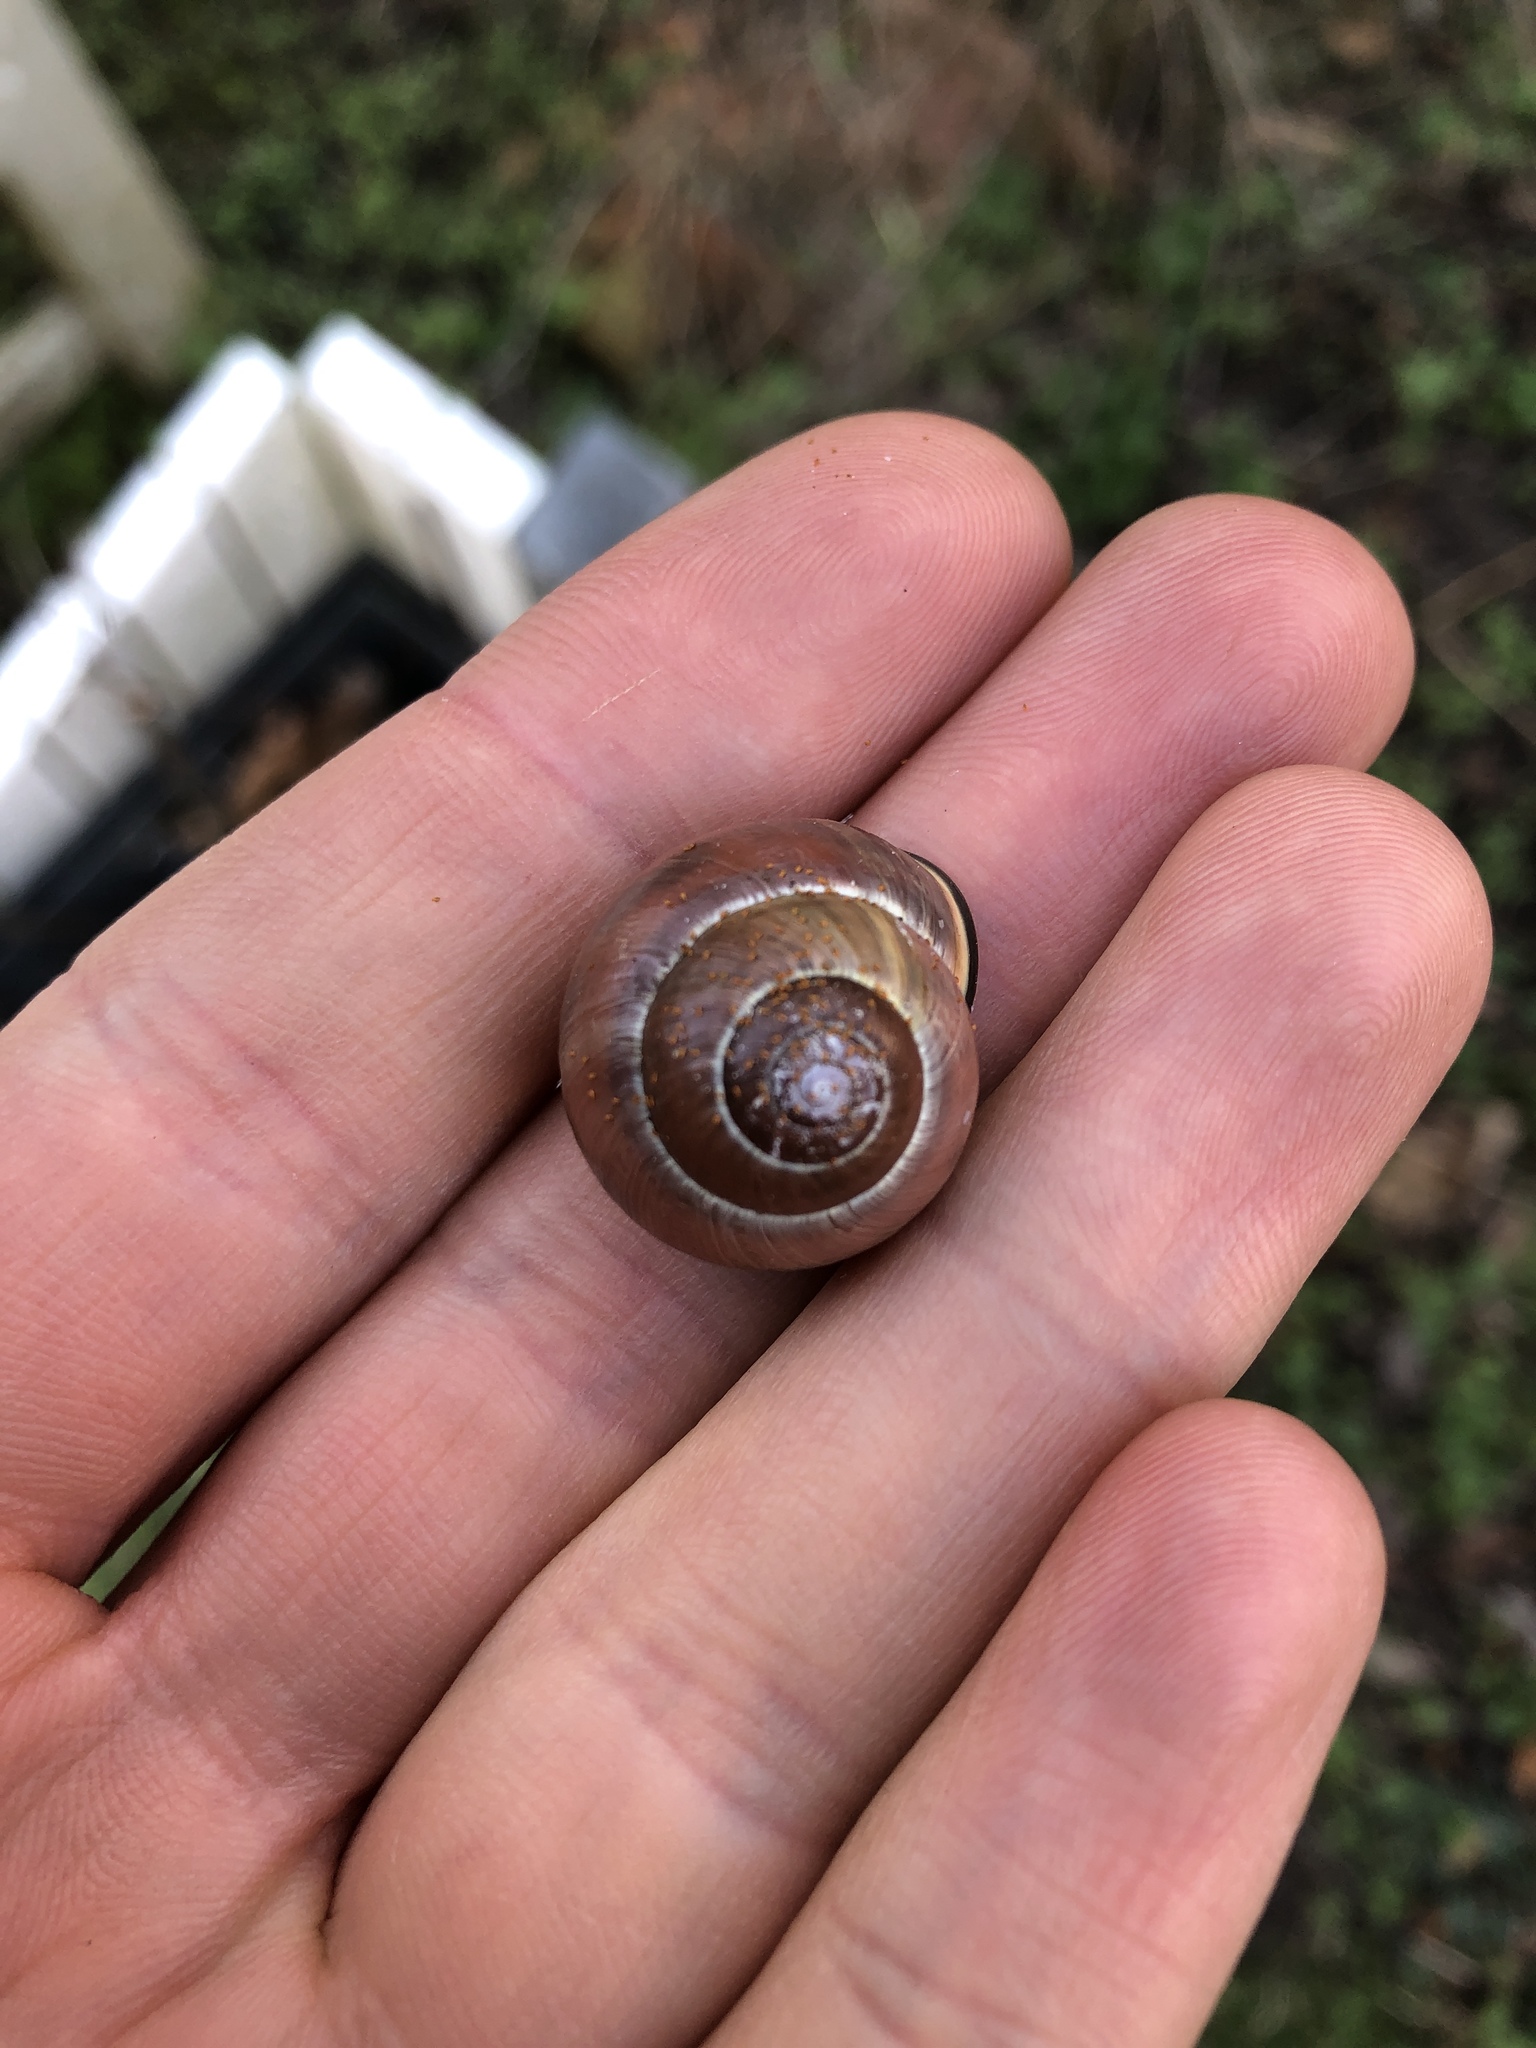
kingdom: Animalia
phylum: Mollusca
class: Gastropoda
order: Stylommatophora
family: Helicidae
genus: Cepaea
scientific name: Cepaea nemoralis
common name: Grovesnail
